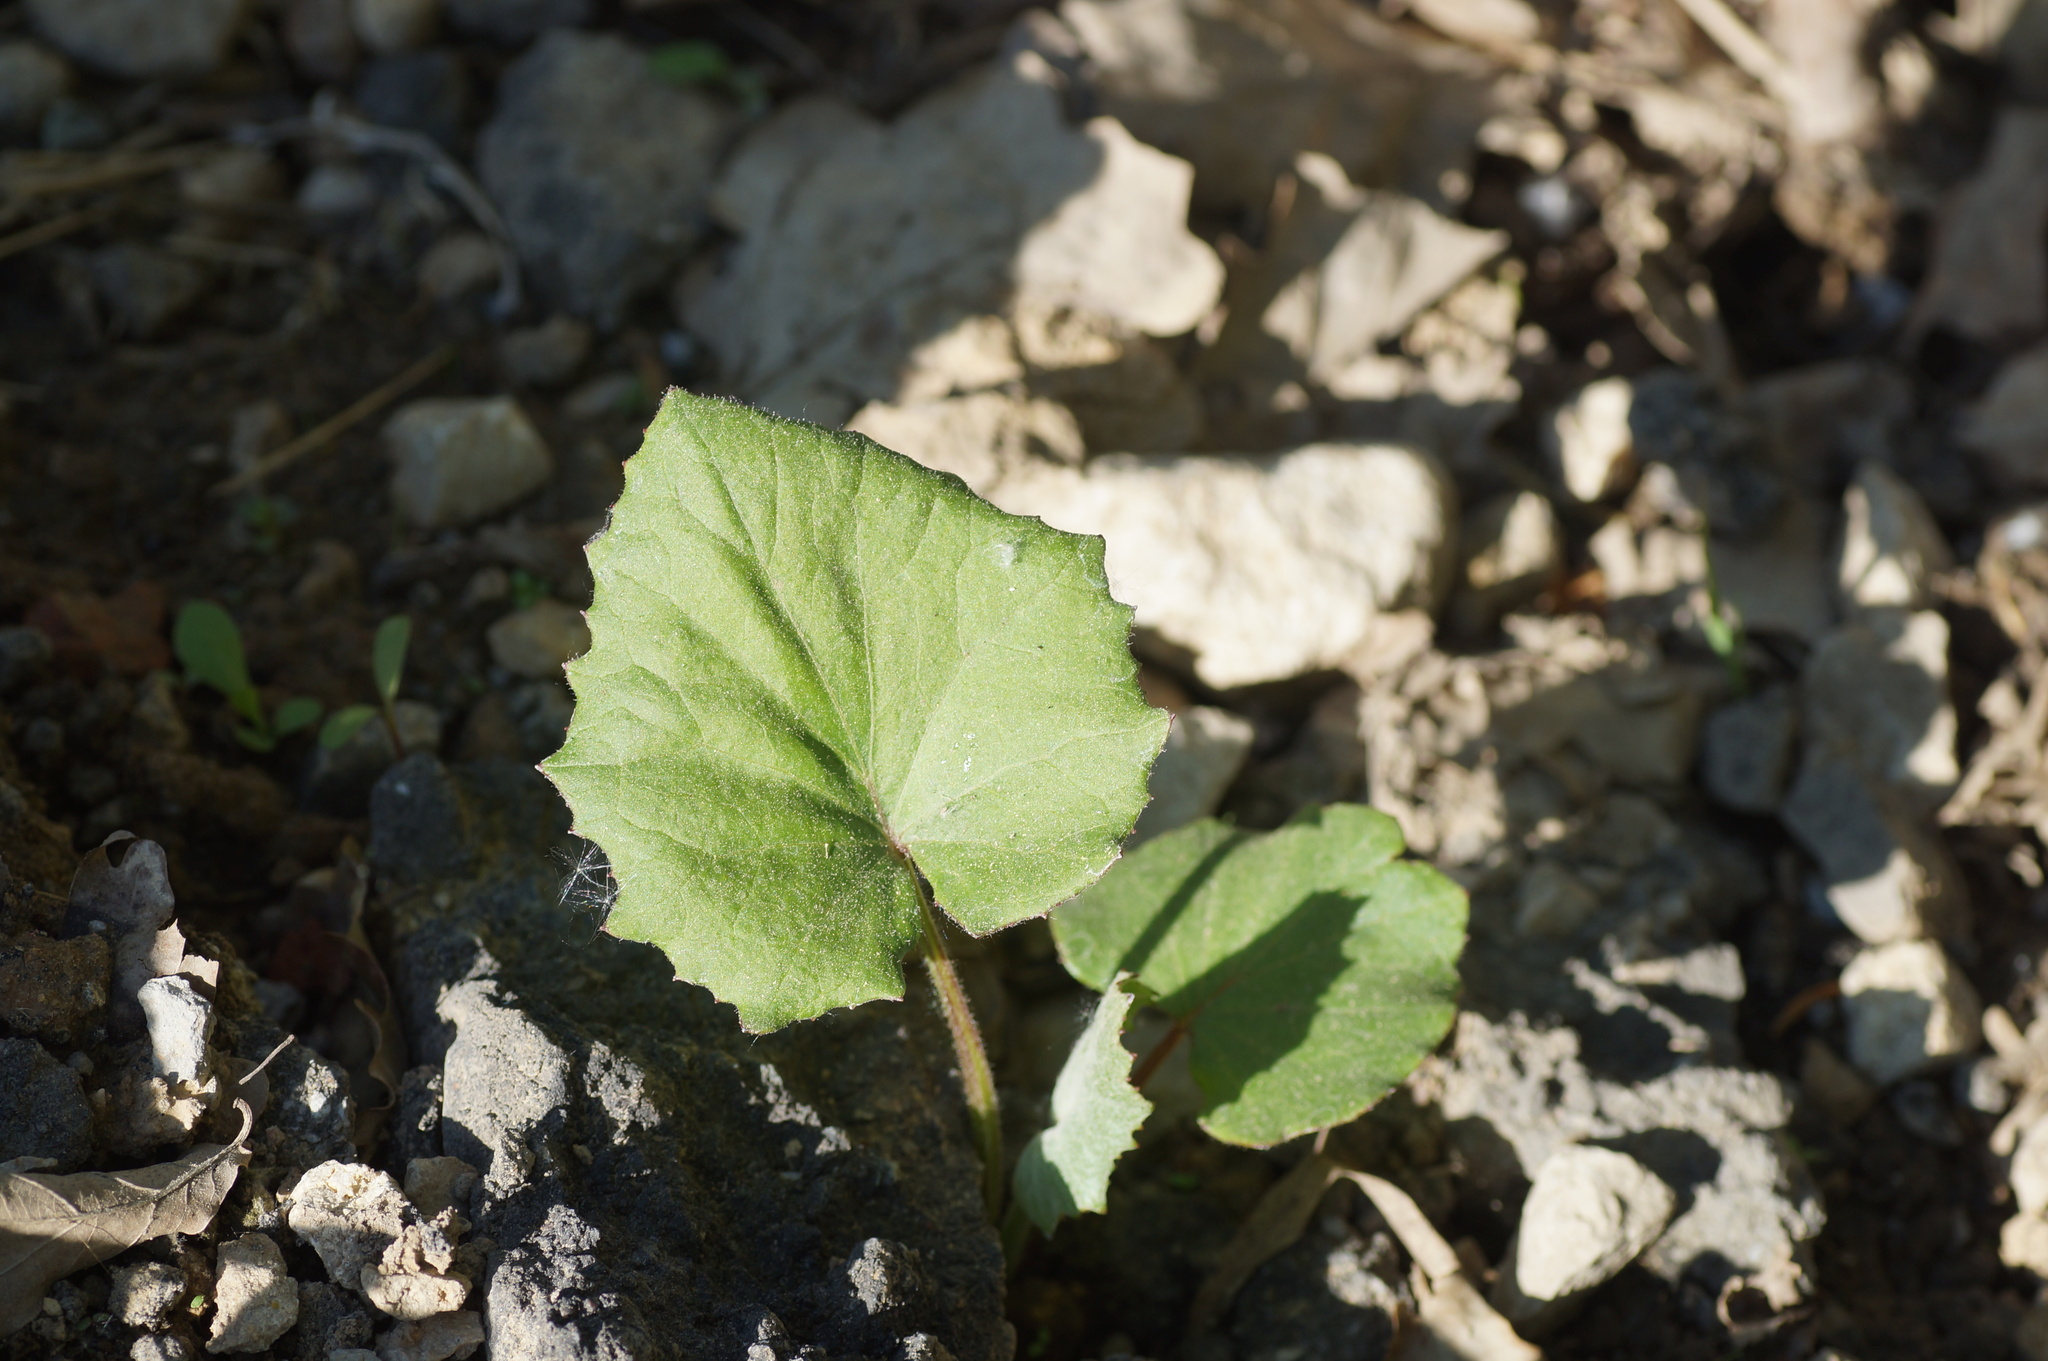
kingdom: Plantae
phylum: Tracheophyta
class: Magnoliopsida
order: Asterales
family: Asteraceae
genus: Tussilago
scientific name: Tussilago farfara
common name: Coltsfoot
